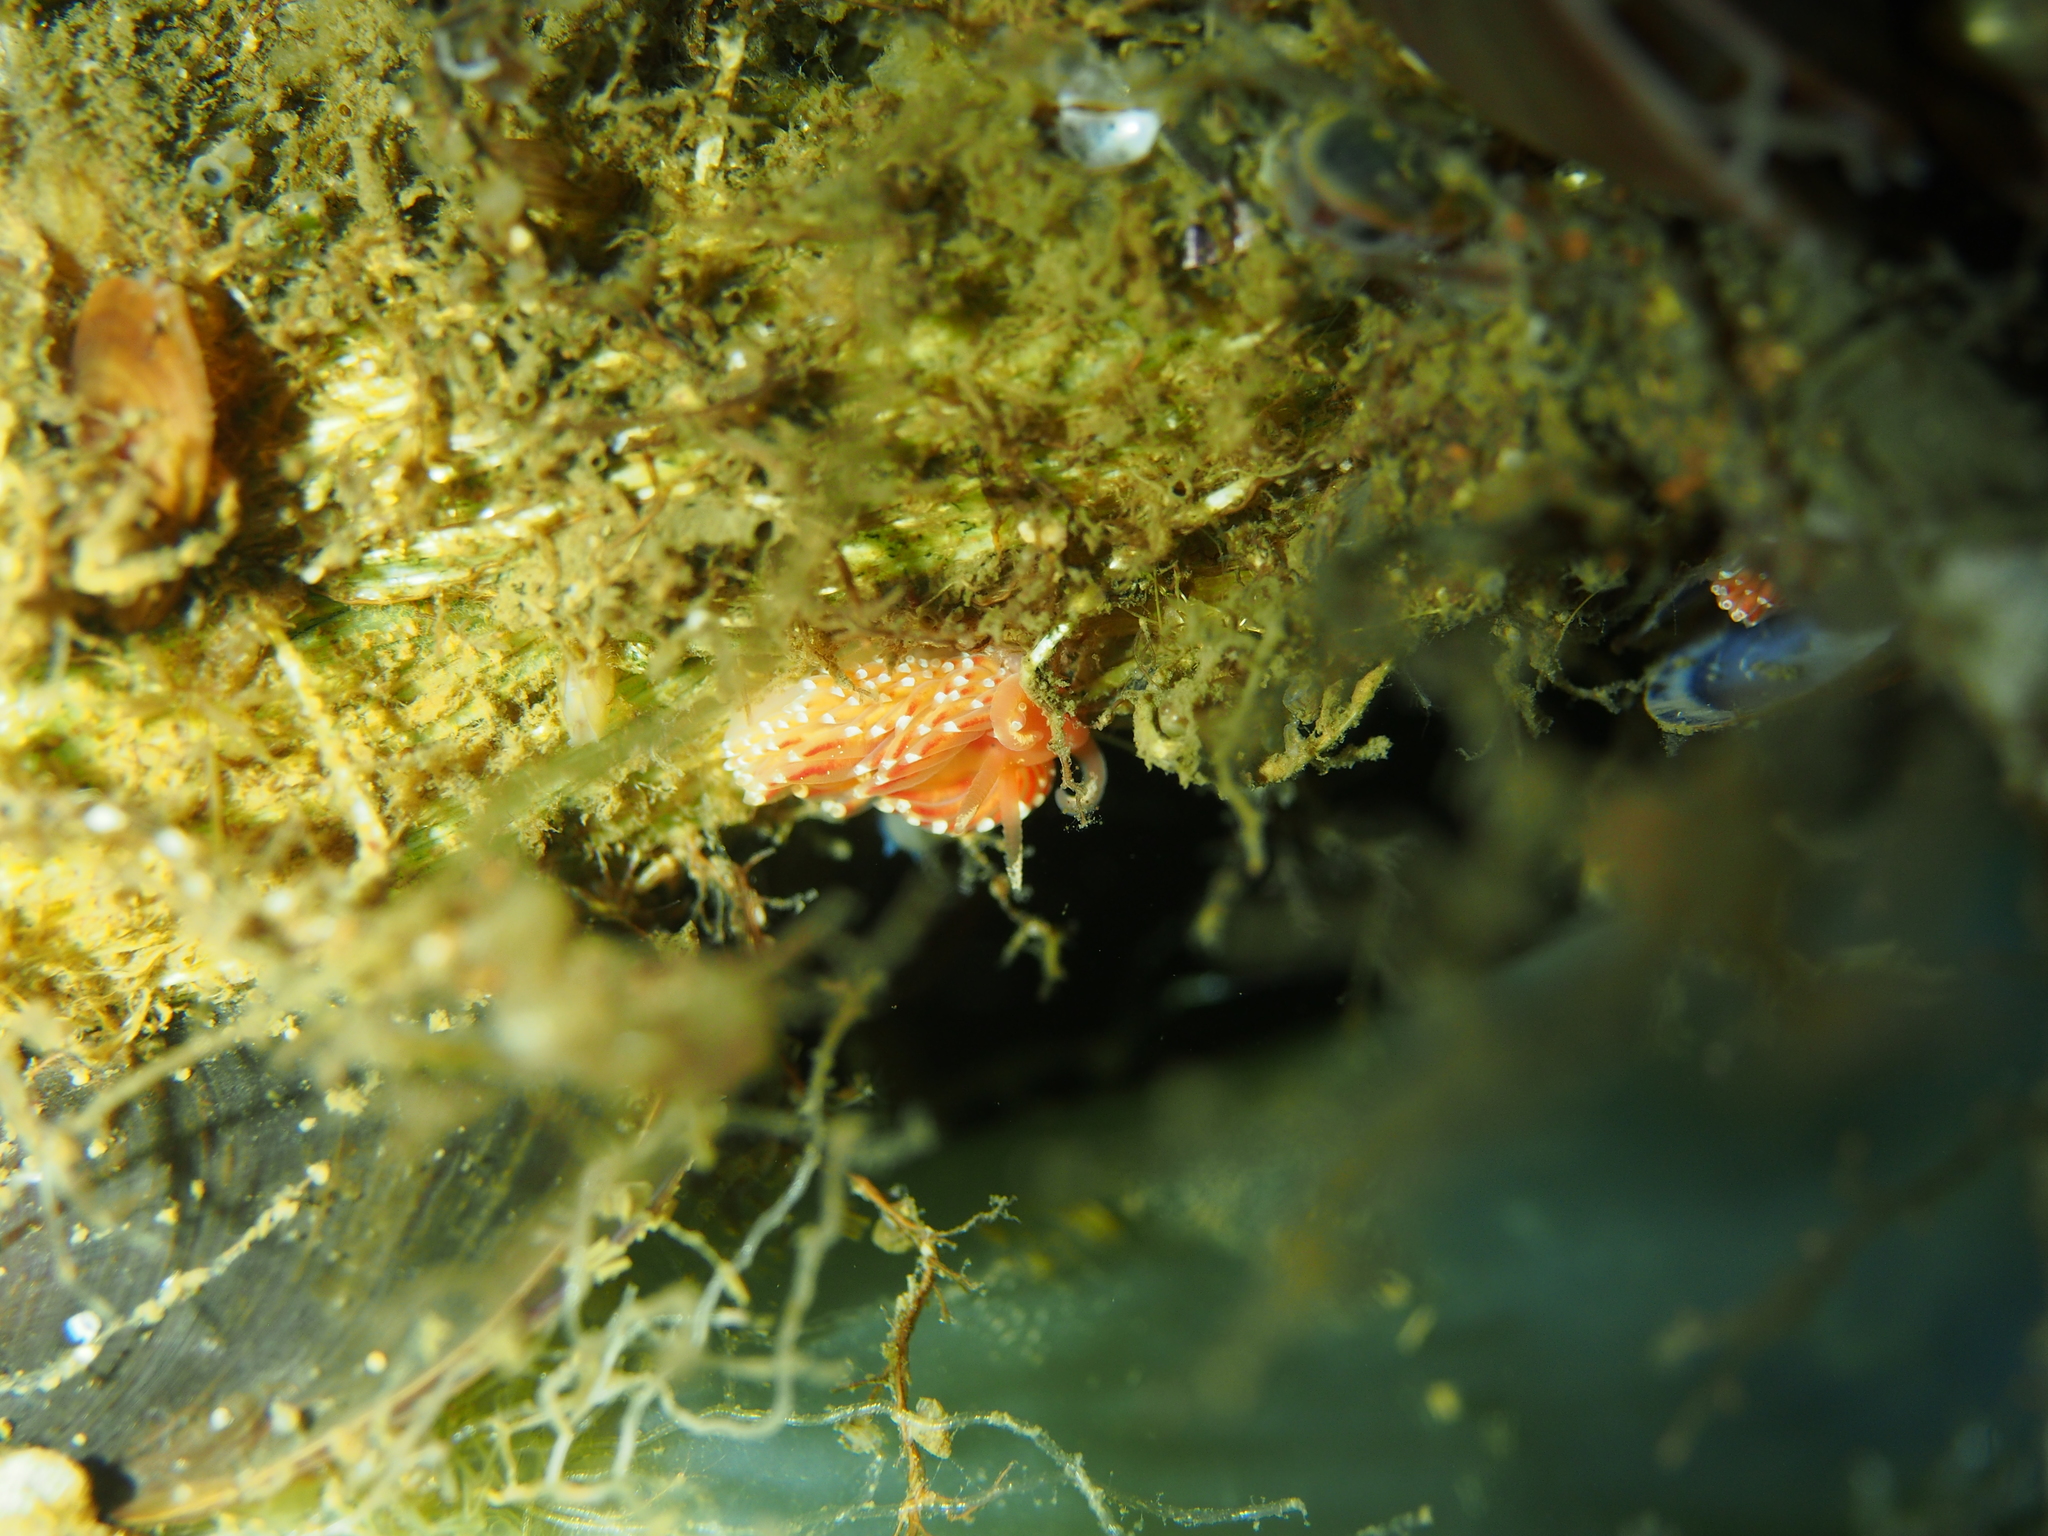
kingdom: Animalia
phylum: Mollusca
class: Gastropoda
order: Nudibranchia
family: Facelinidae
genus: Facelina
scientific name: Facelina bostoniensis
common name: Boston facelina
